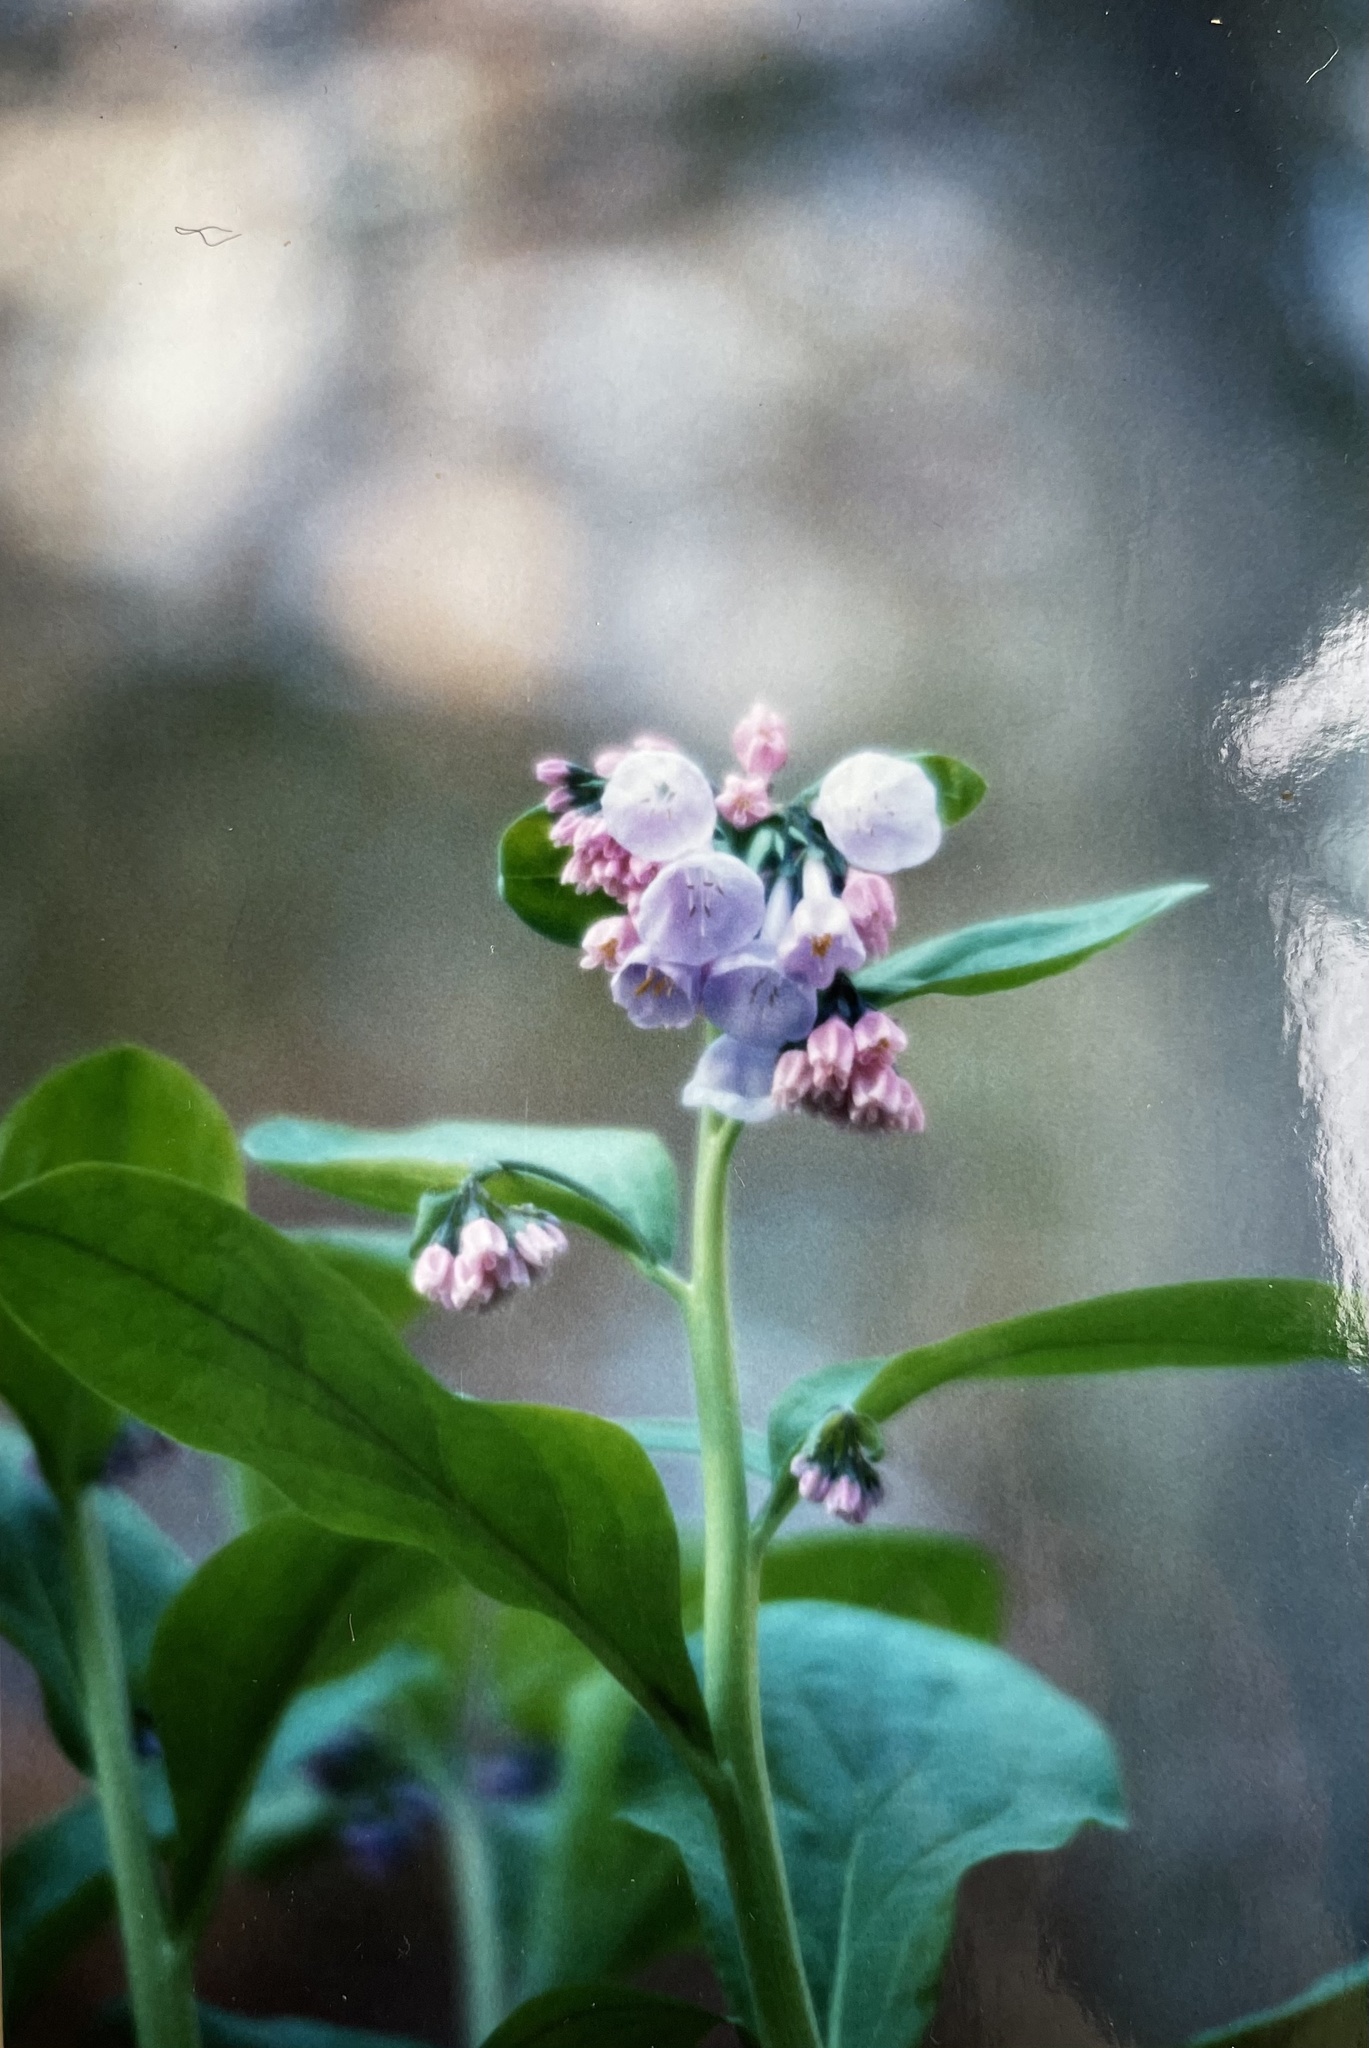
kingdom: Plantae
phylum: Tracheophyta
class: Magnoliopsida
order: Boraginales
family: Boraginaceae
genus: Mertensia
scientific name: Mertensia virginica
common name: Virginia bluebells
